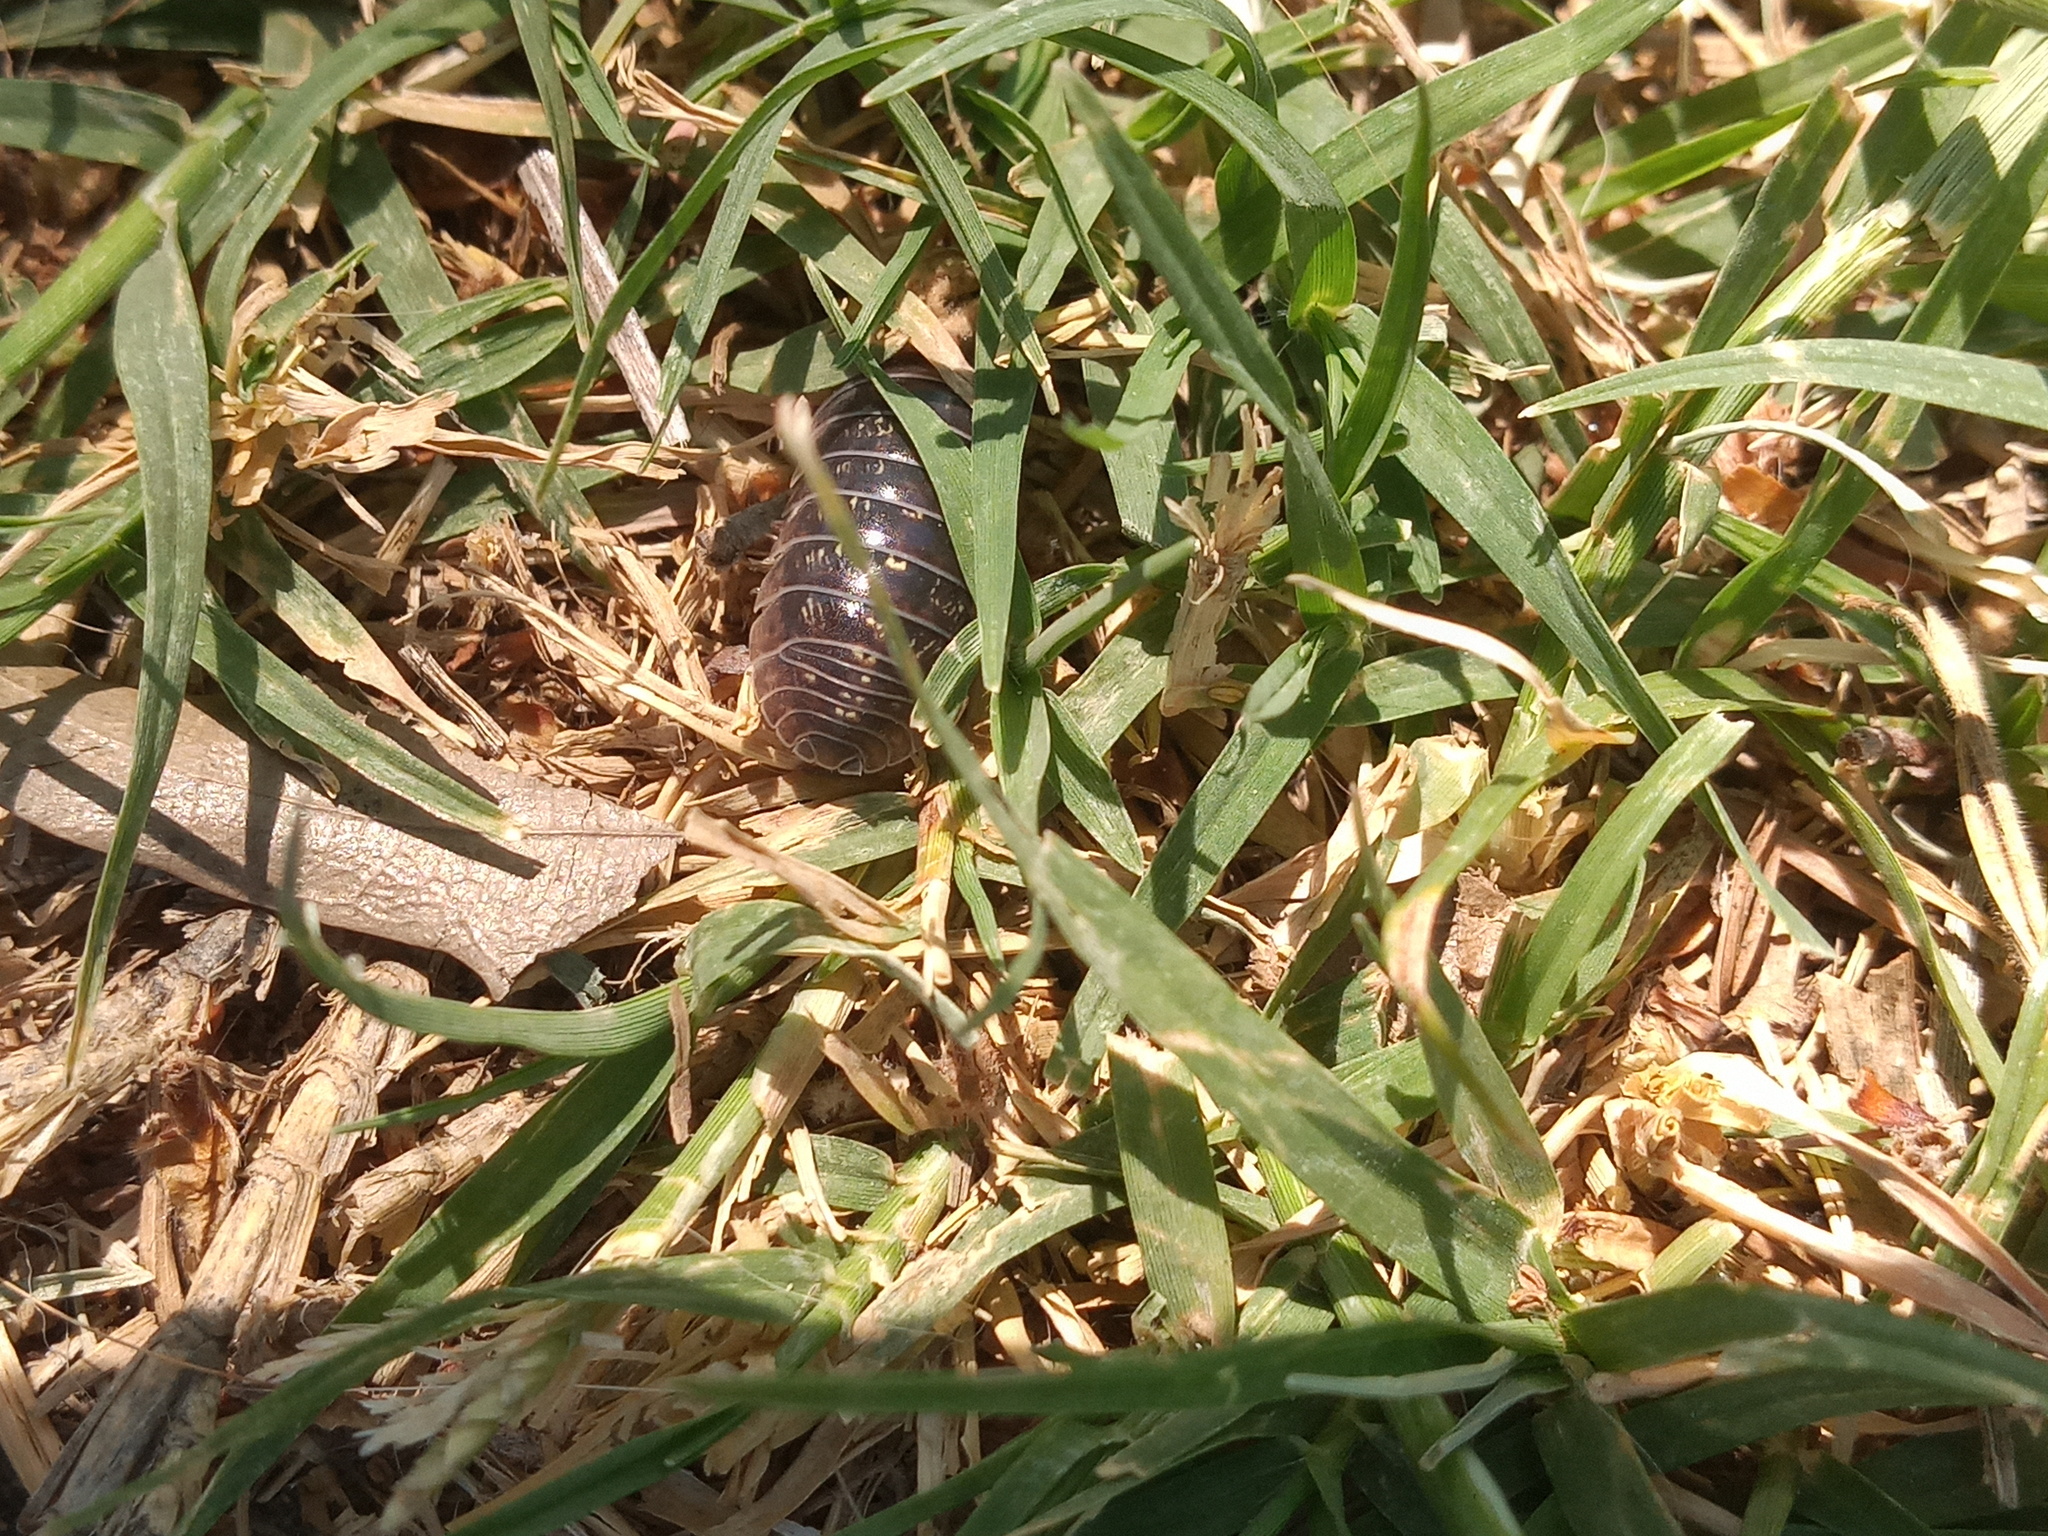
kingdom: Animalia
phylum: Arthropoda
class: Malacostraca
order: Isopoda
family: Armadillidiidae
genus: Armadillidium
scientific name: Armadillidium vulgare
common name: Common pill woodlouse
